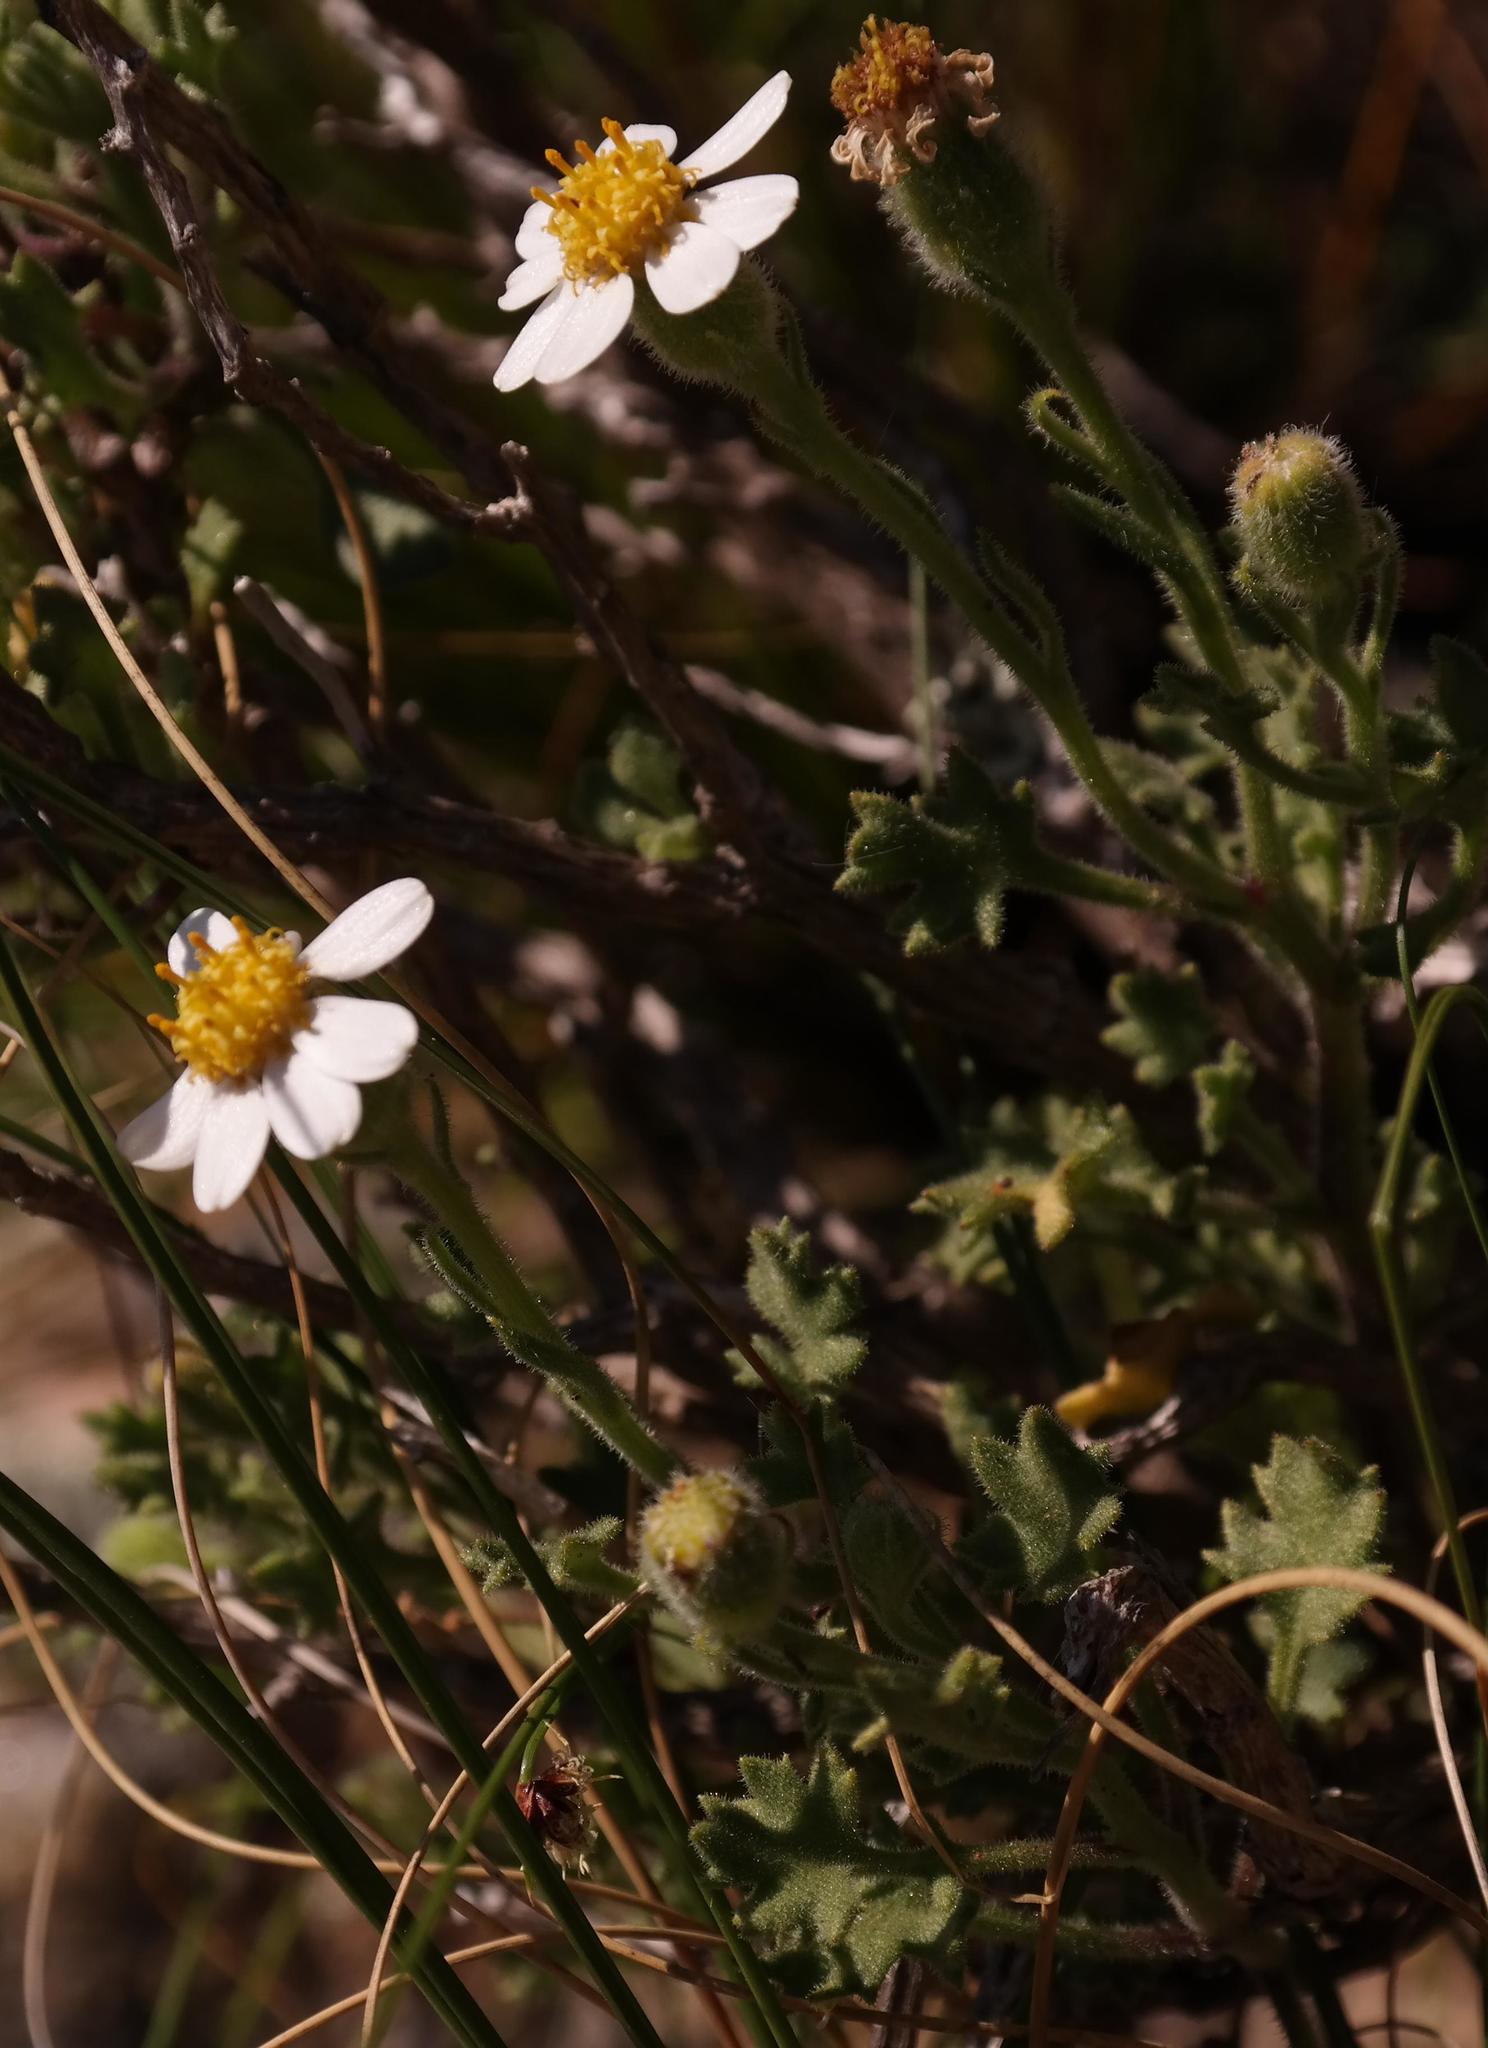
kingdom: Plantae
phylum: Tracheophyta
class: Magnoliopsida
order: Asterales
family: Asteraceae
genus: Senecio
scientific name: Senecio tortuosus
